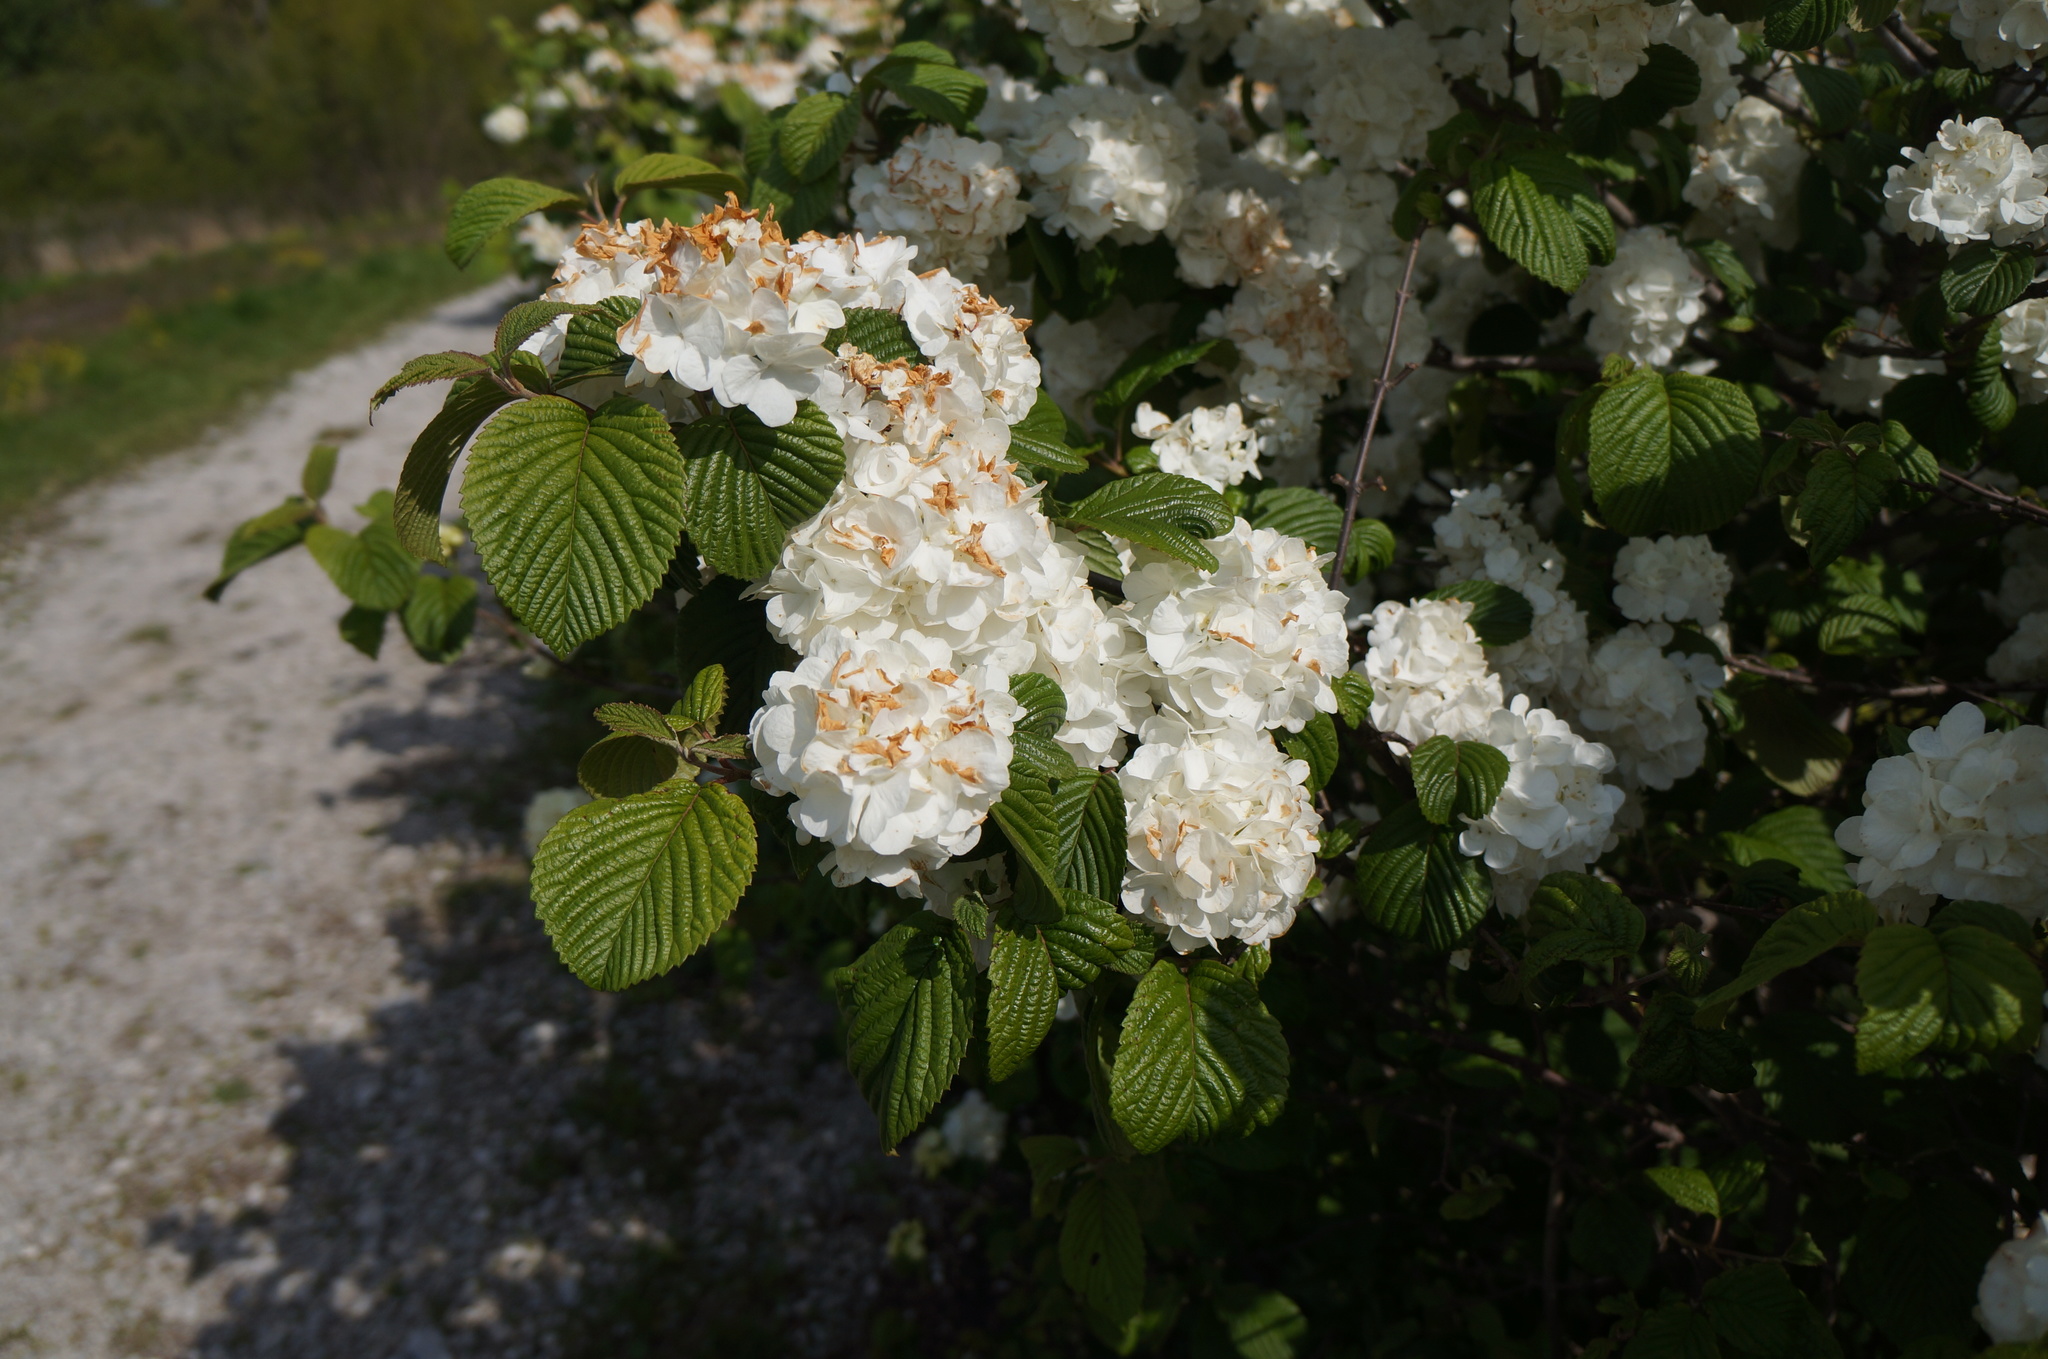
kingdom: Plantae
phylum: Tracheophyta
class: Magnoliopsida
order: Dipsacales
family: Viburnaceae
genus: Viburnum
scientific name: Viburnum plicatum
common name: Japanese snowball
